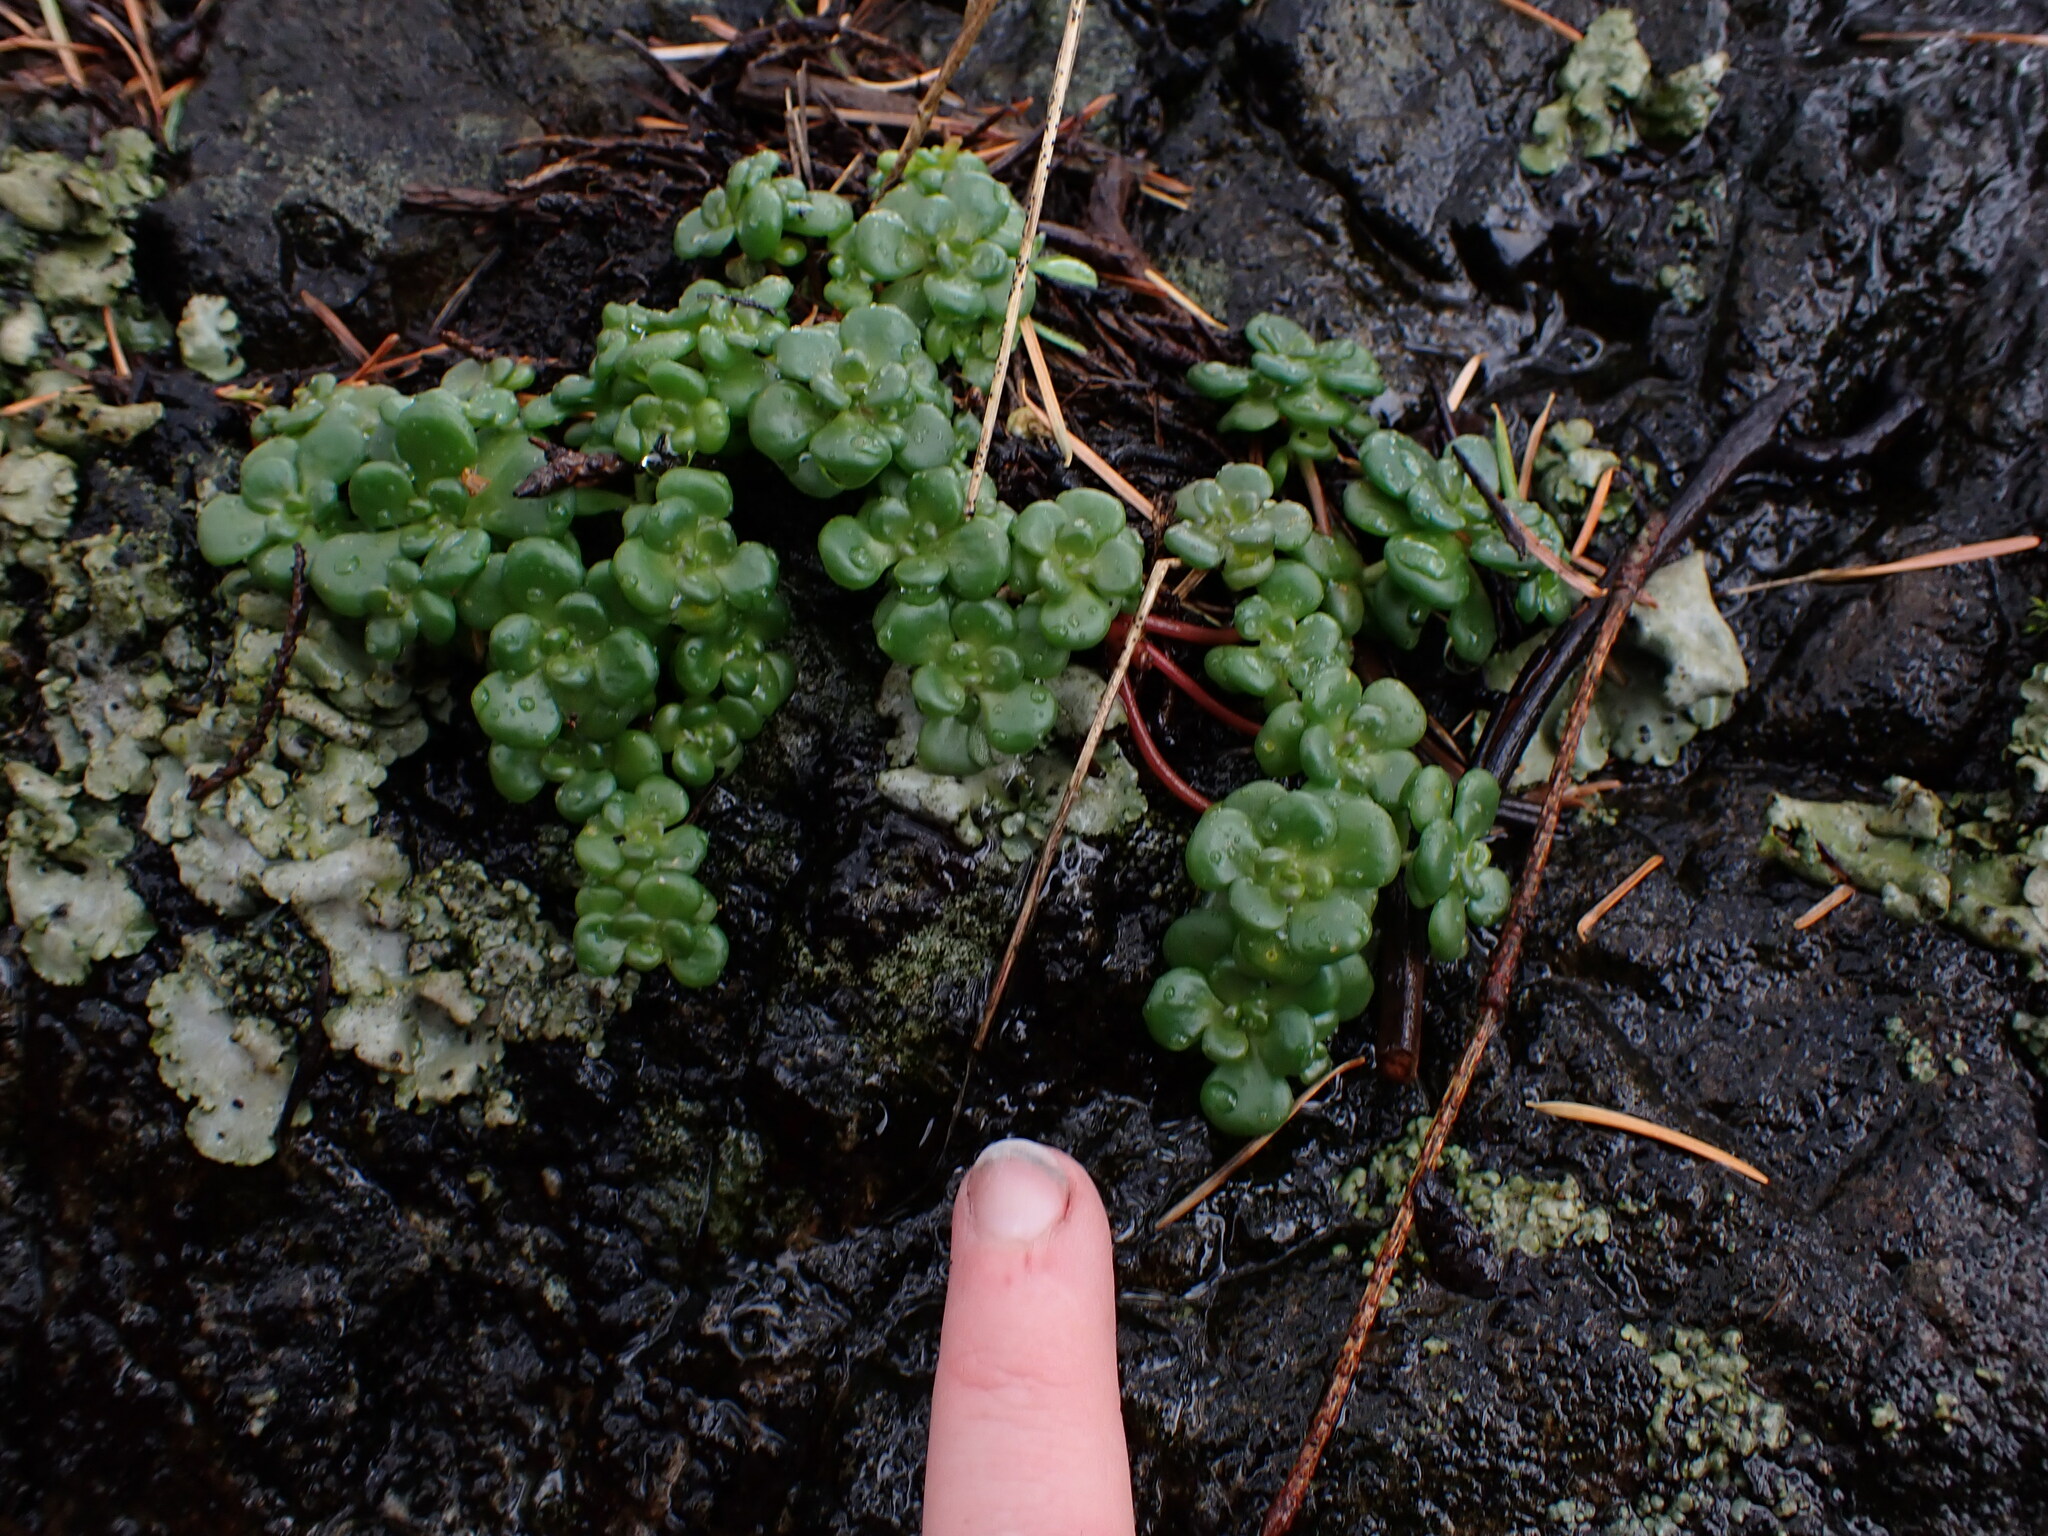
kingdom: Plantae
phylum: Tracheophyta
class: Magnoliopsida
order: Saxifragales
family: Crassulaceae
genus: Sedum
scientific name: Sedum oreganum
